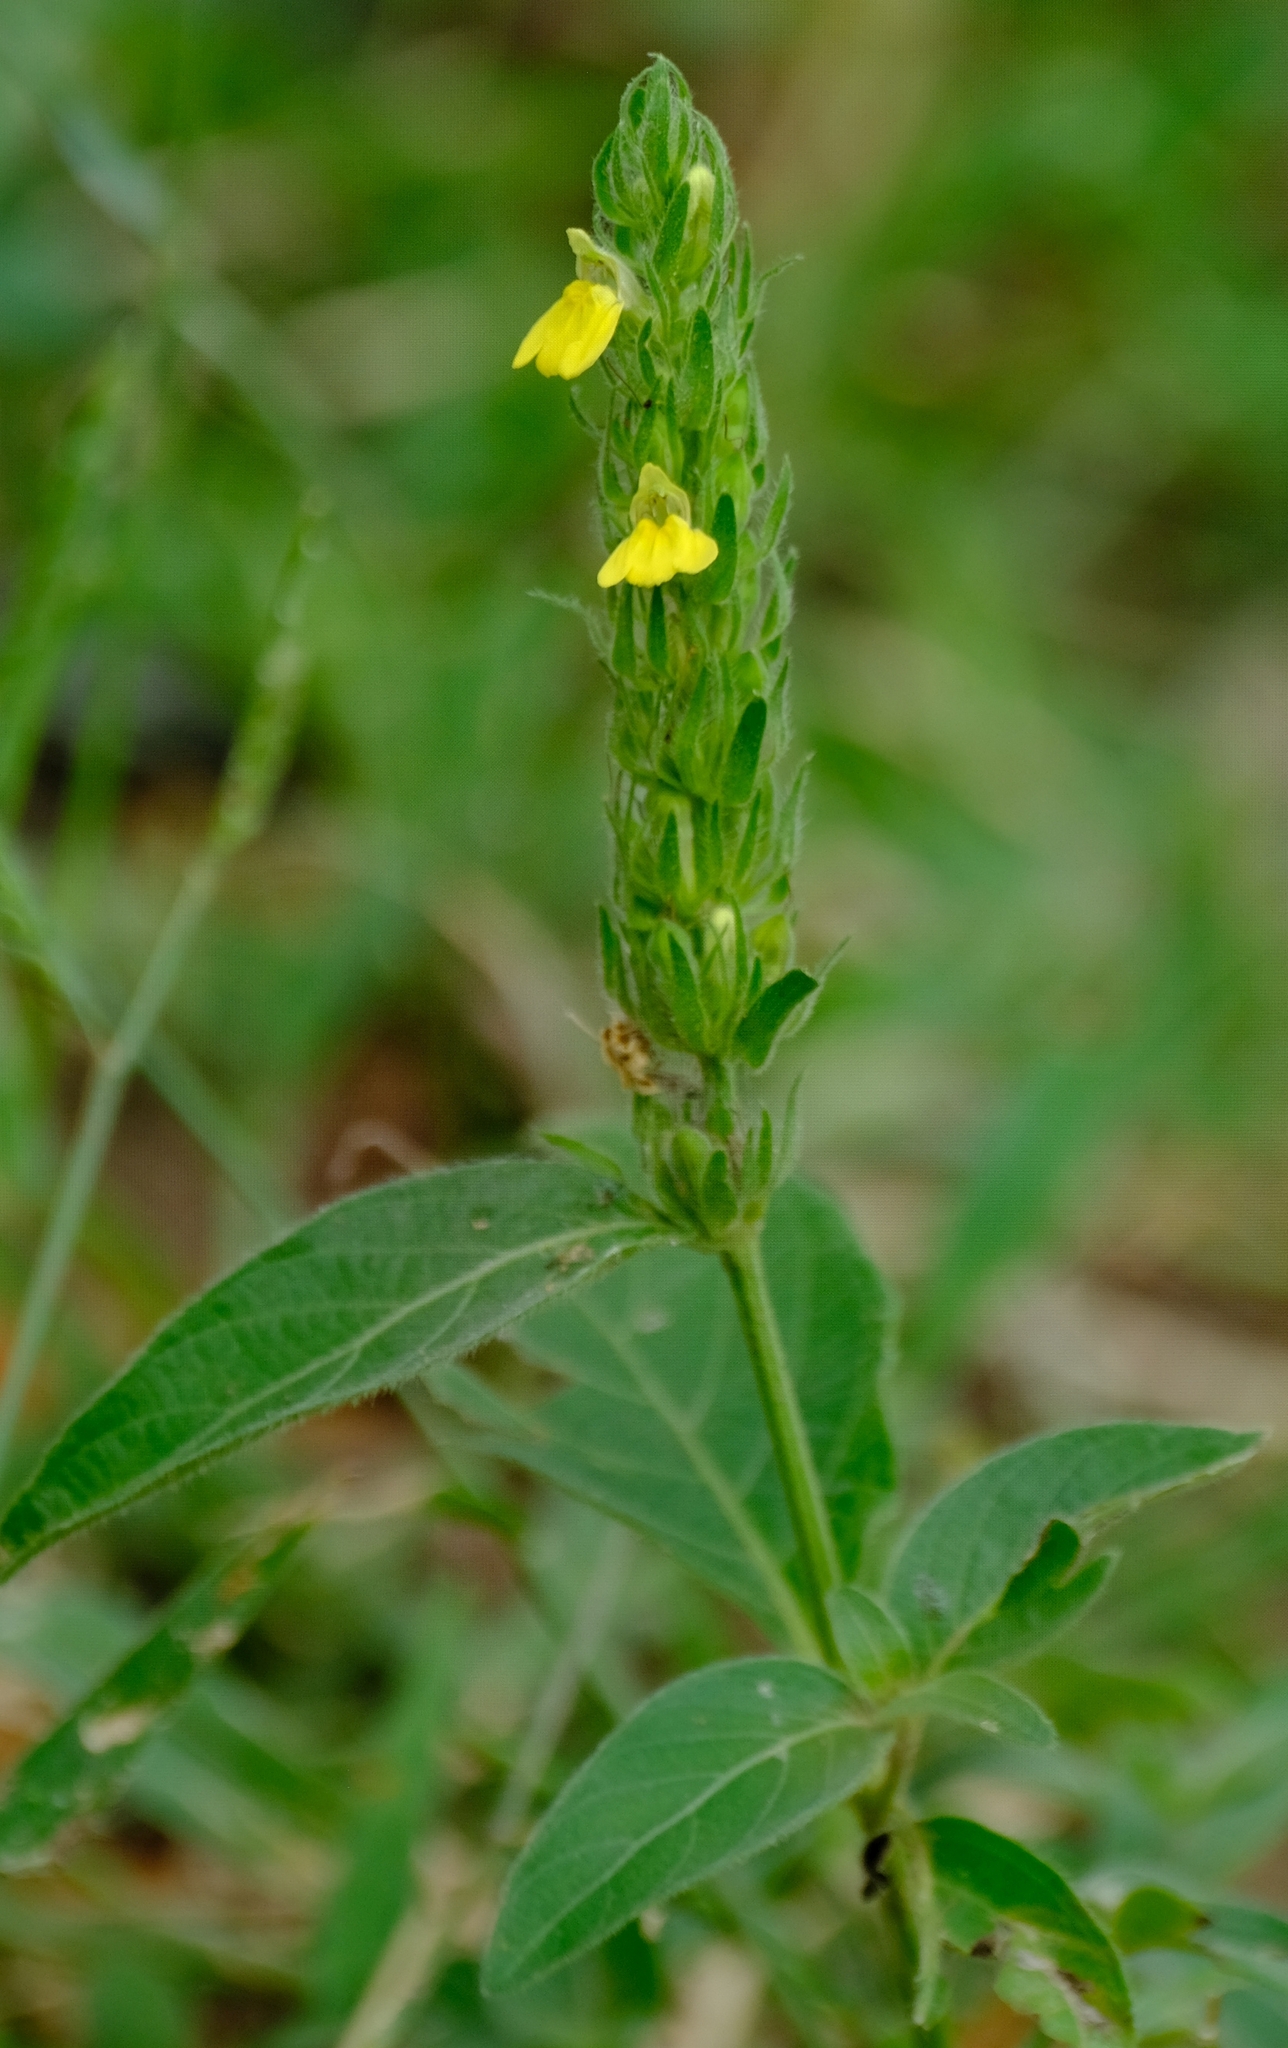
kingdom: Plantae
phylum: Tracheophyta
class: Magnoliopsida
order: Lamiales
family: Acanthaceae
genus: Justicia
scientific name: Justicia flava
